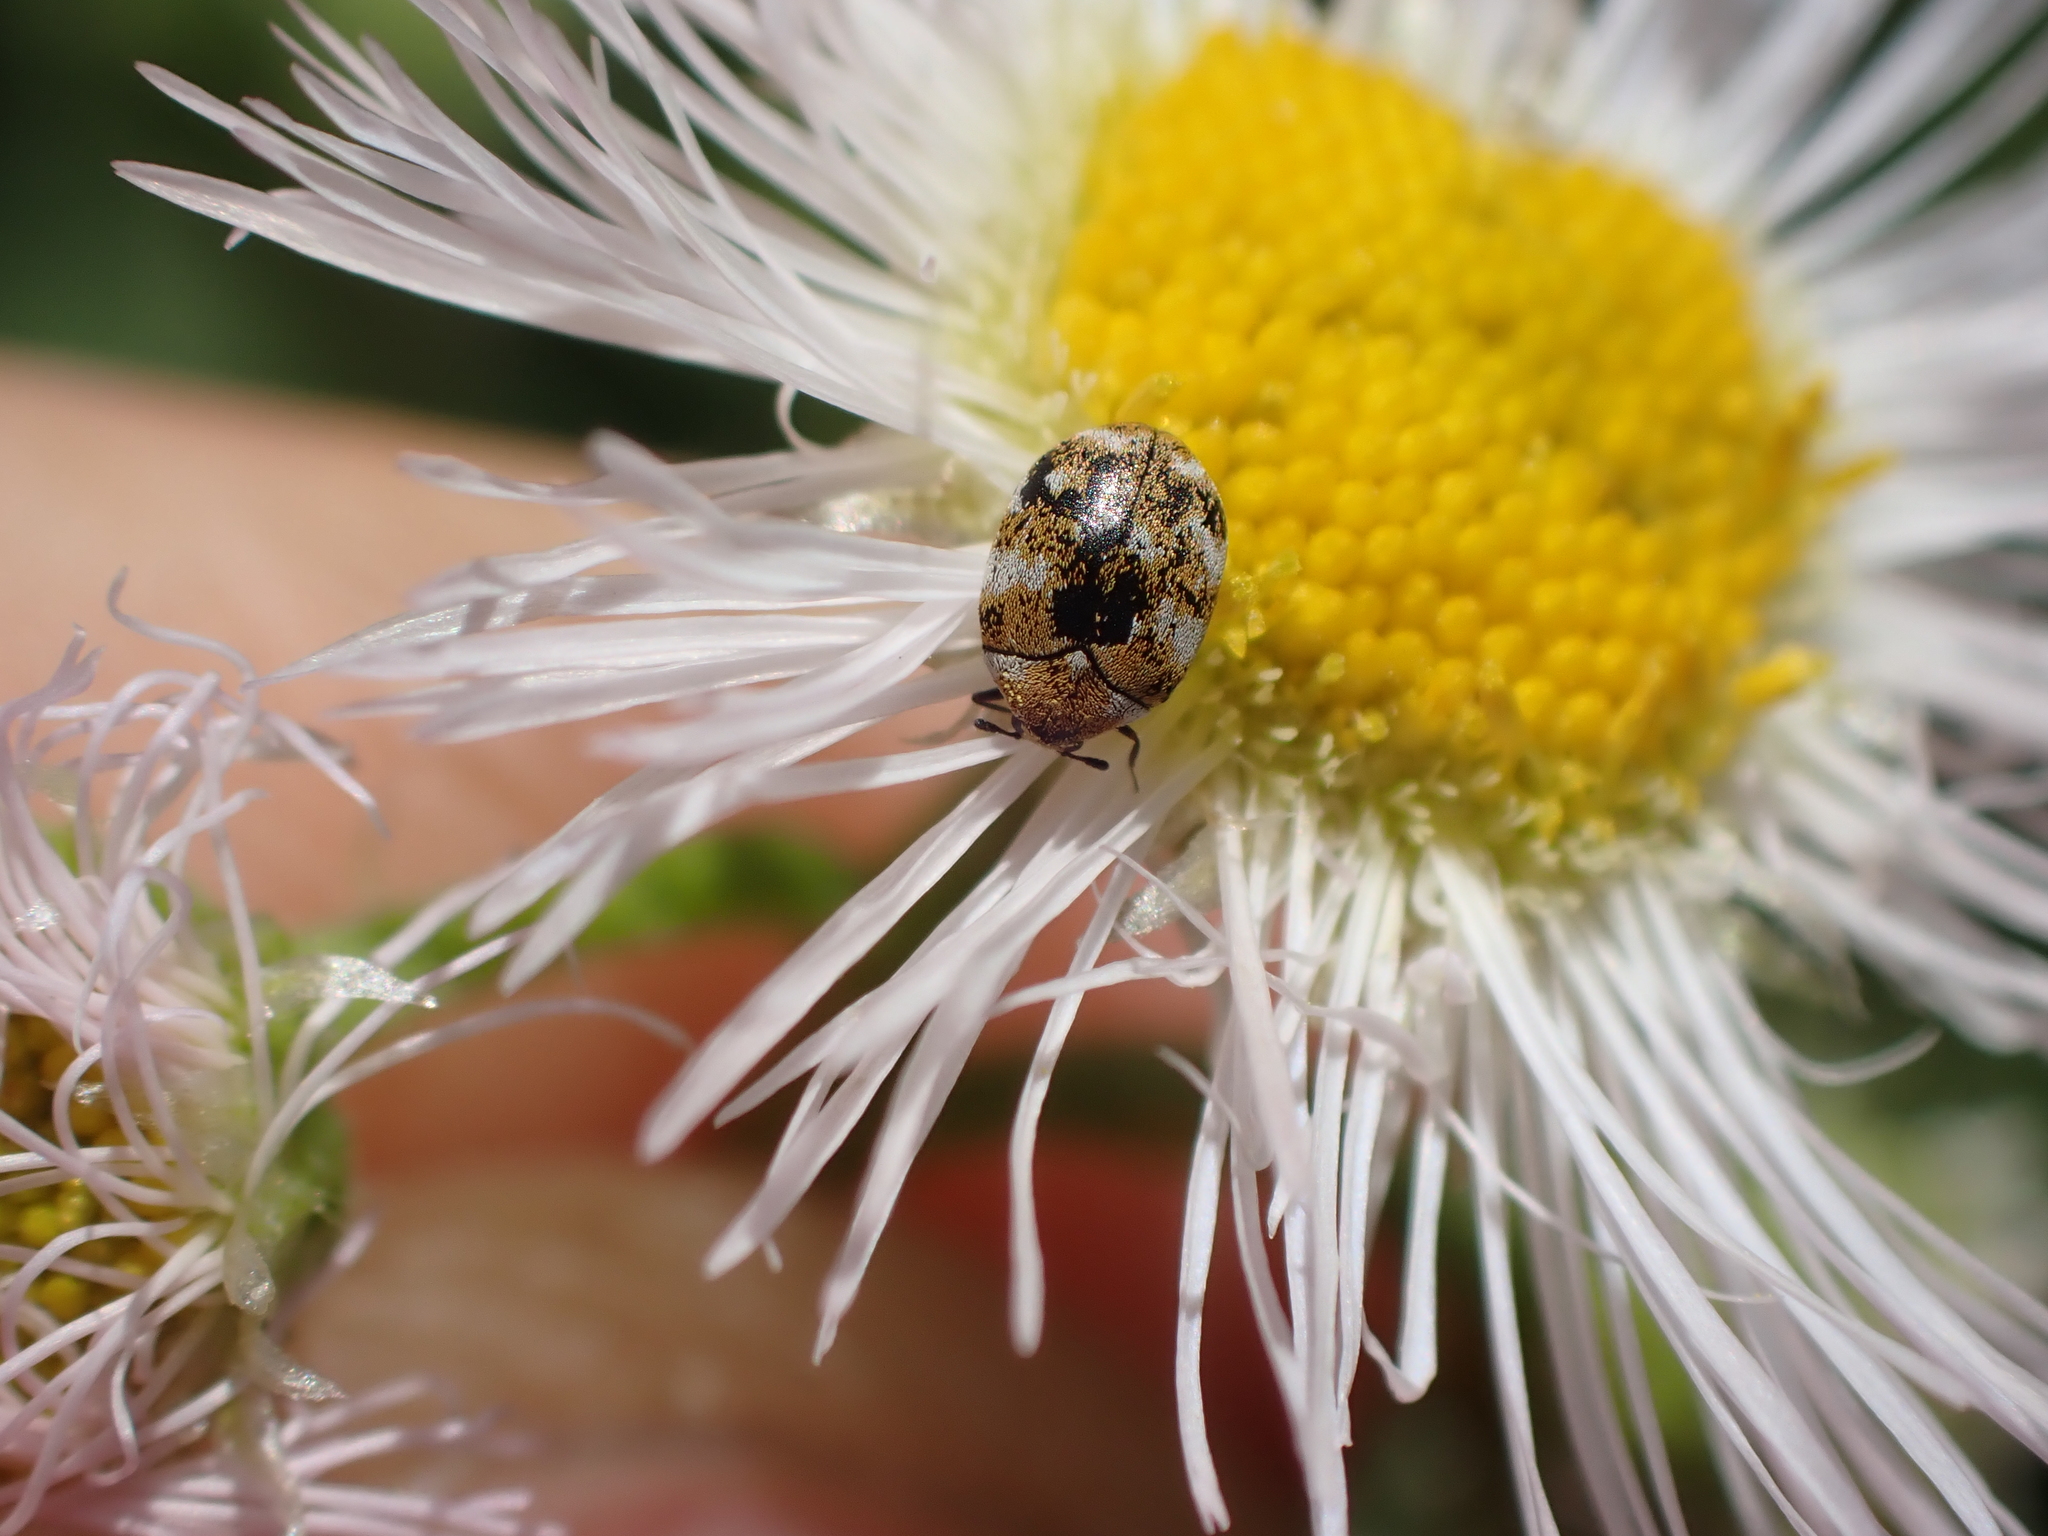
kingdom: Animalia
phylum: Arthropoda
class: Insecta
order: Coleoptera
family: Dermestidae
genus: Anthrenus
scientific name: Anthrenus verbasci
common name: Varied carpet beetle
